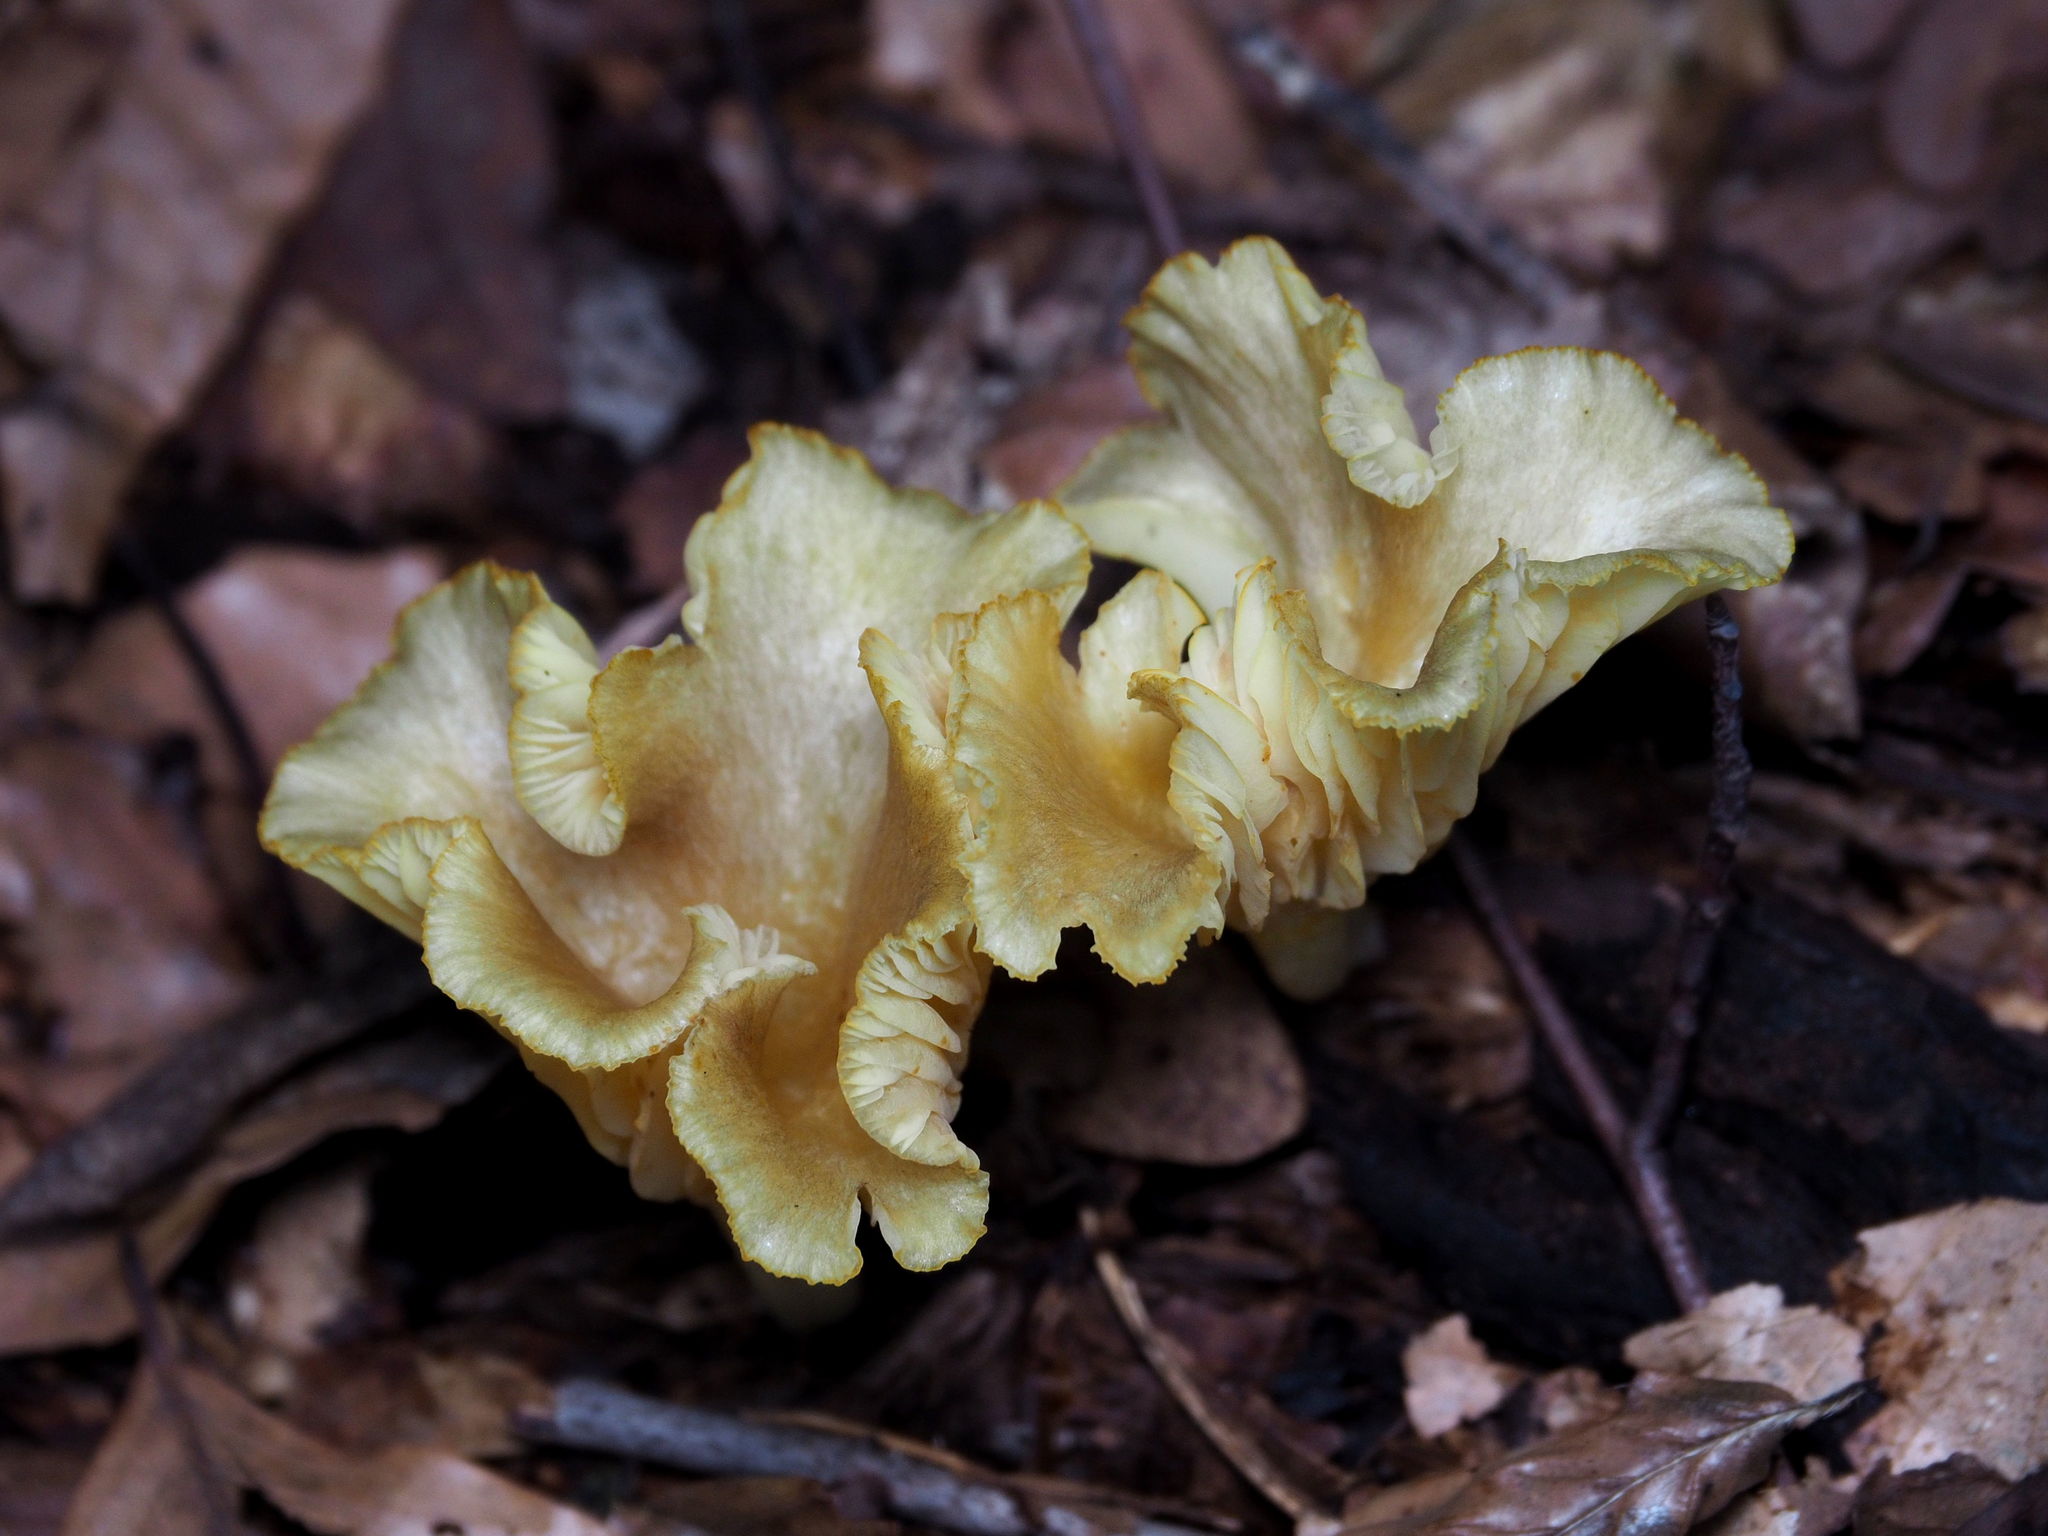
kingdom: Fungi
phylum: Basidiomycota
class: Agaricomycetes
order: Agaricales
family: Marasmiaceae
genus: Gerronema
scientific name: Gerronema strombodes
